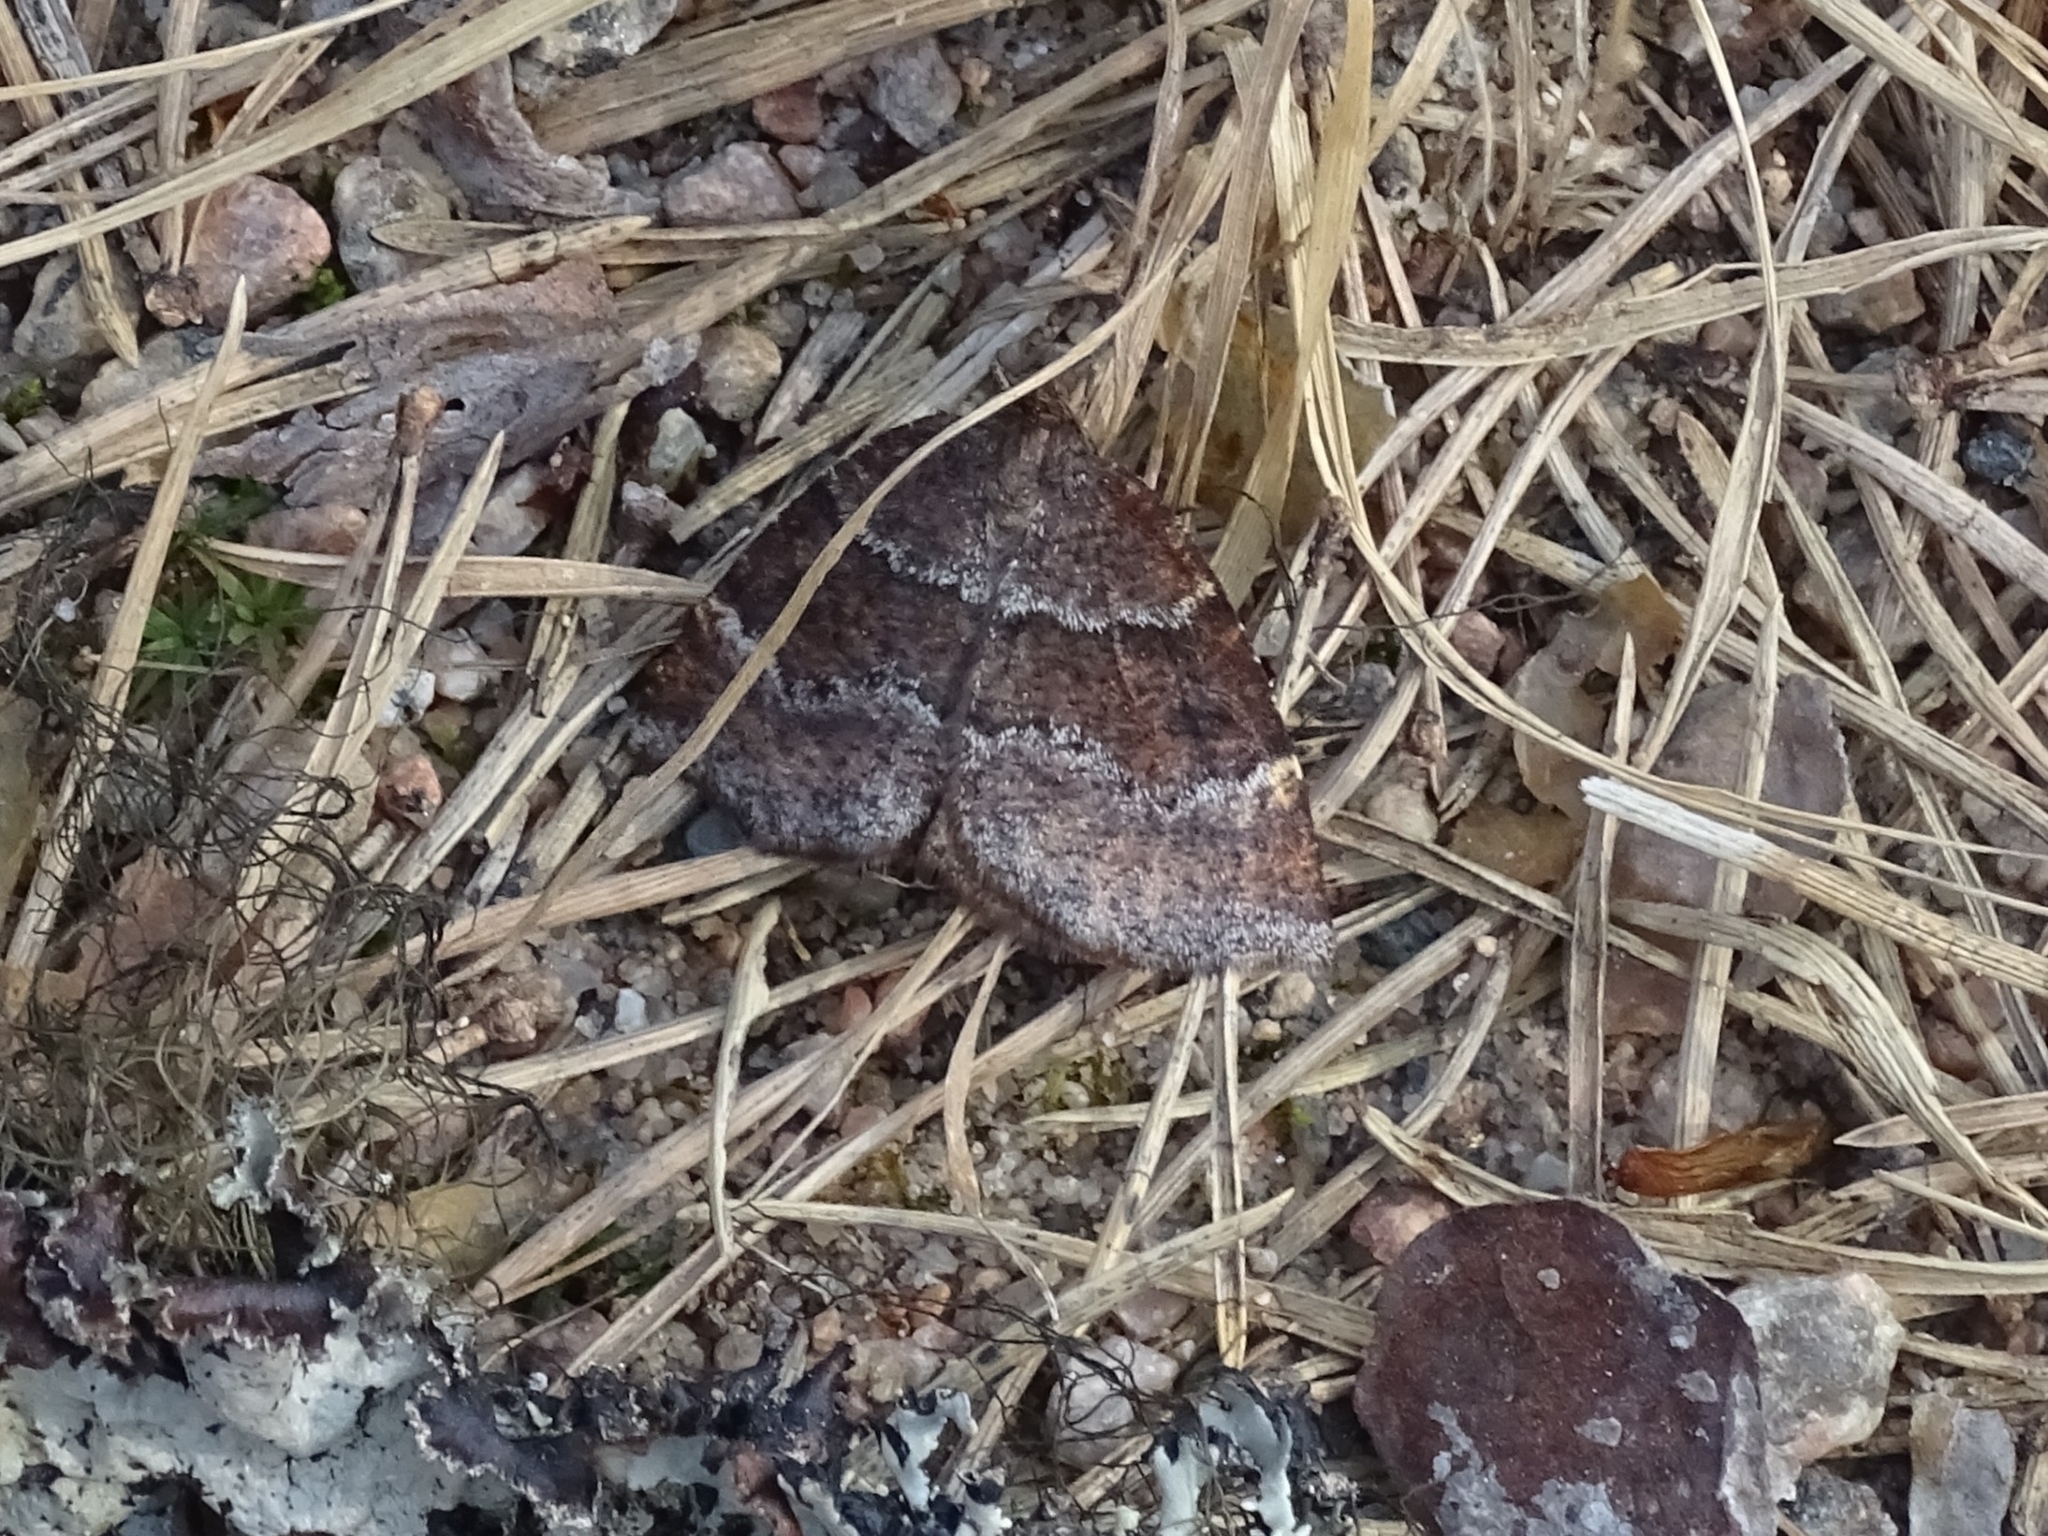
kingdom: Animalia
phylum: Arthropoda
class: Insecta
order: Lepidoptera
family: Geometridae
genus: Epirranthis
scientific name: Epirranthis diversata
